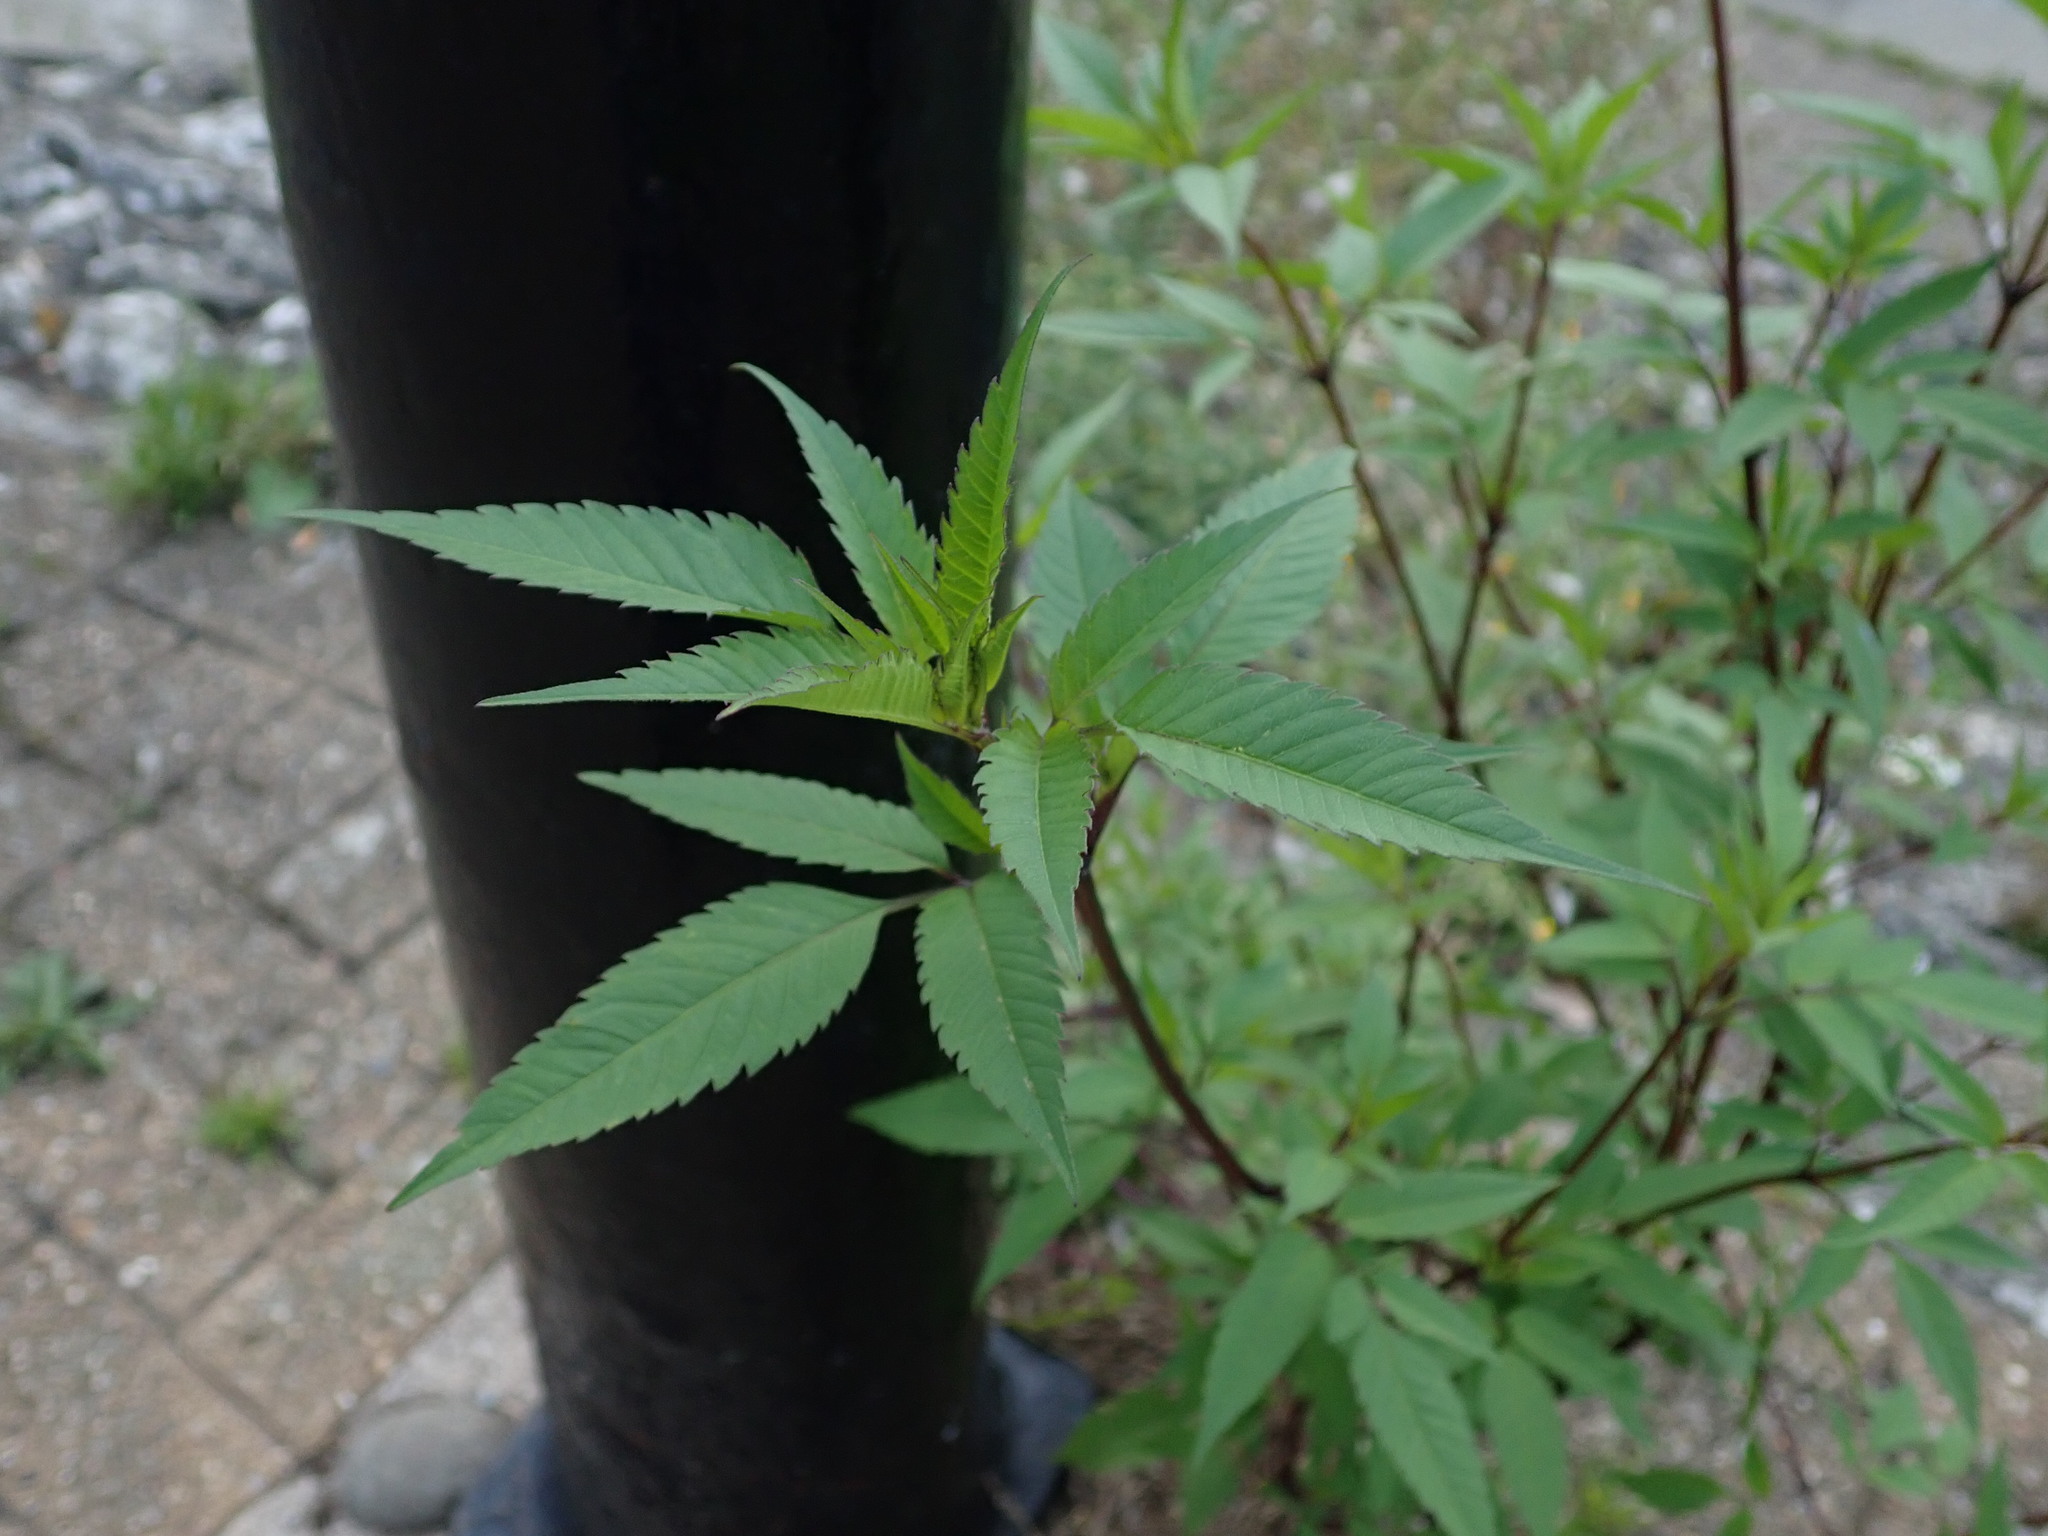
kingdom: Plantae
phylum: Tracheophyta
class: Magnoliopsida
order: Asterales
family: Asteraceae
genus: Bidens
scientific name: Bidens frondosa
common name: Beggarticks
